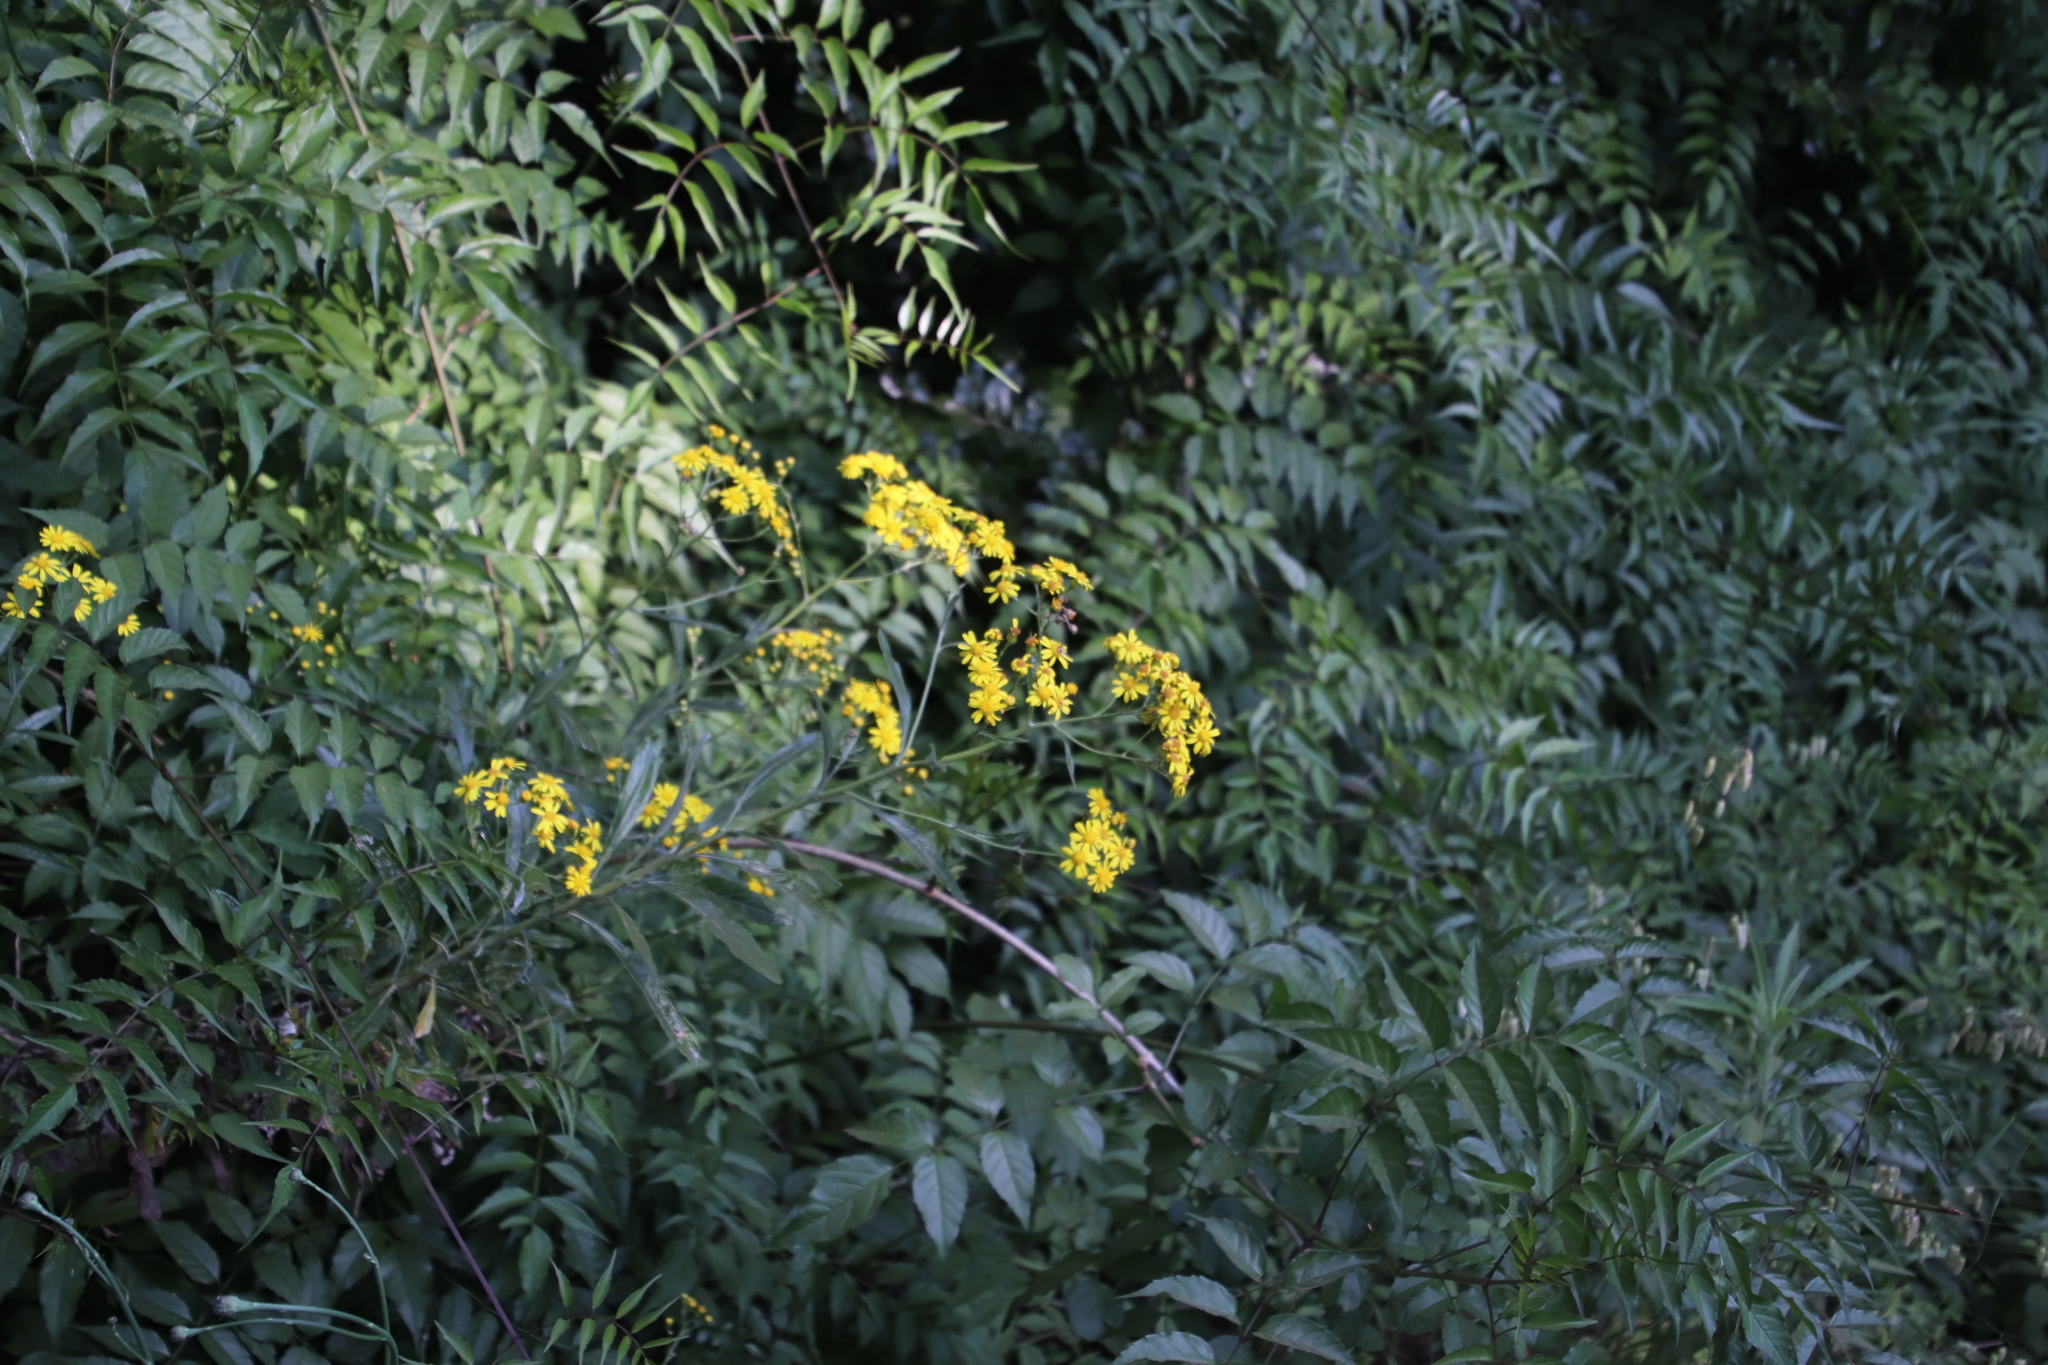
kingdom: Plantae
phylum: Tracheophyta
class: Magnoliopsida
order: Asterales
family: Asteraceae
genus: Senecio
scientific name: Senecio pterophorus
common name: Shoddy ragwort
